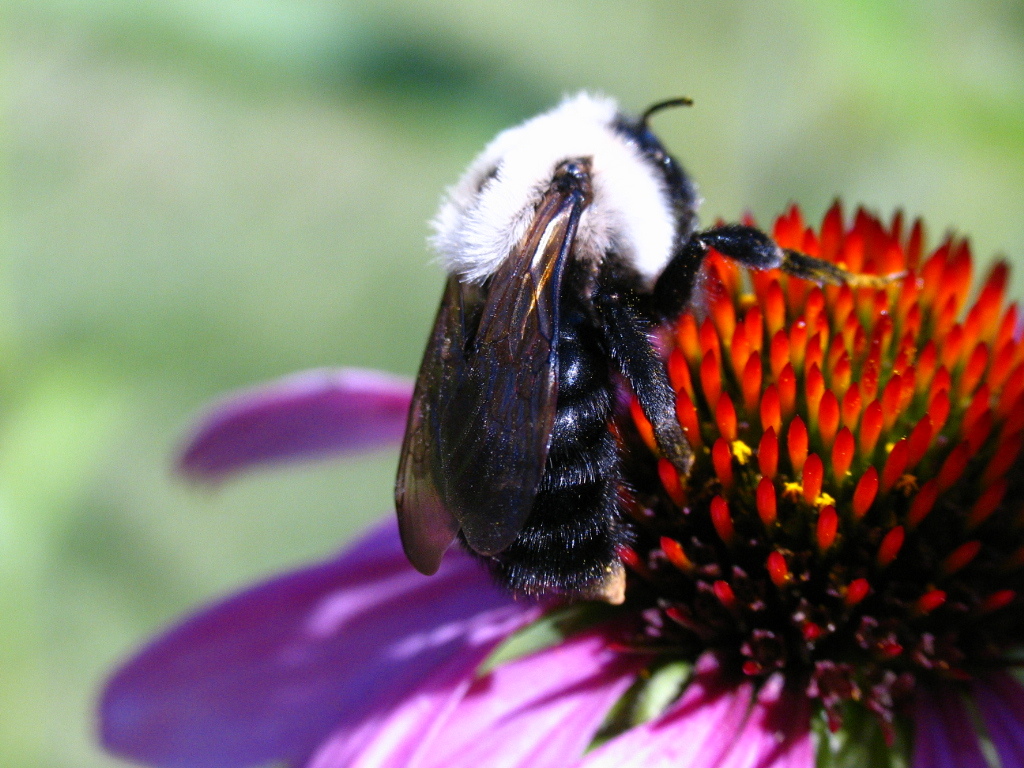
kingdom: Animalia
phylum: Arthropoda
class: Insecta
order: Hymenoptera
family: Apidae
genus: Bombus
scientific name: Bombus citrinus
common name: Lemon cuckoo bumble bee
